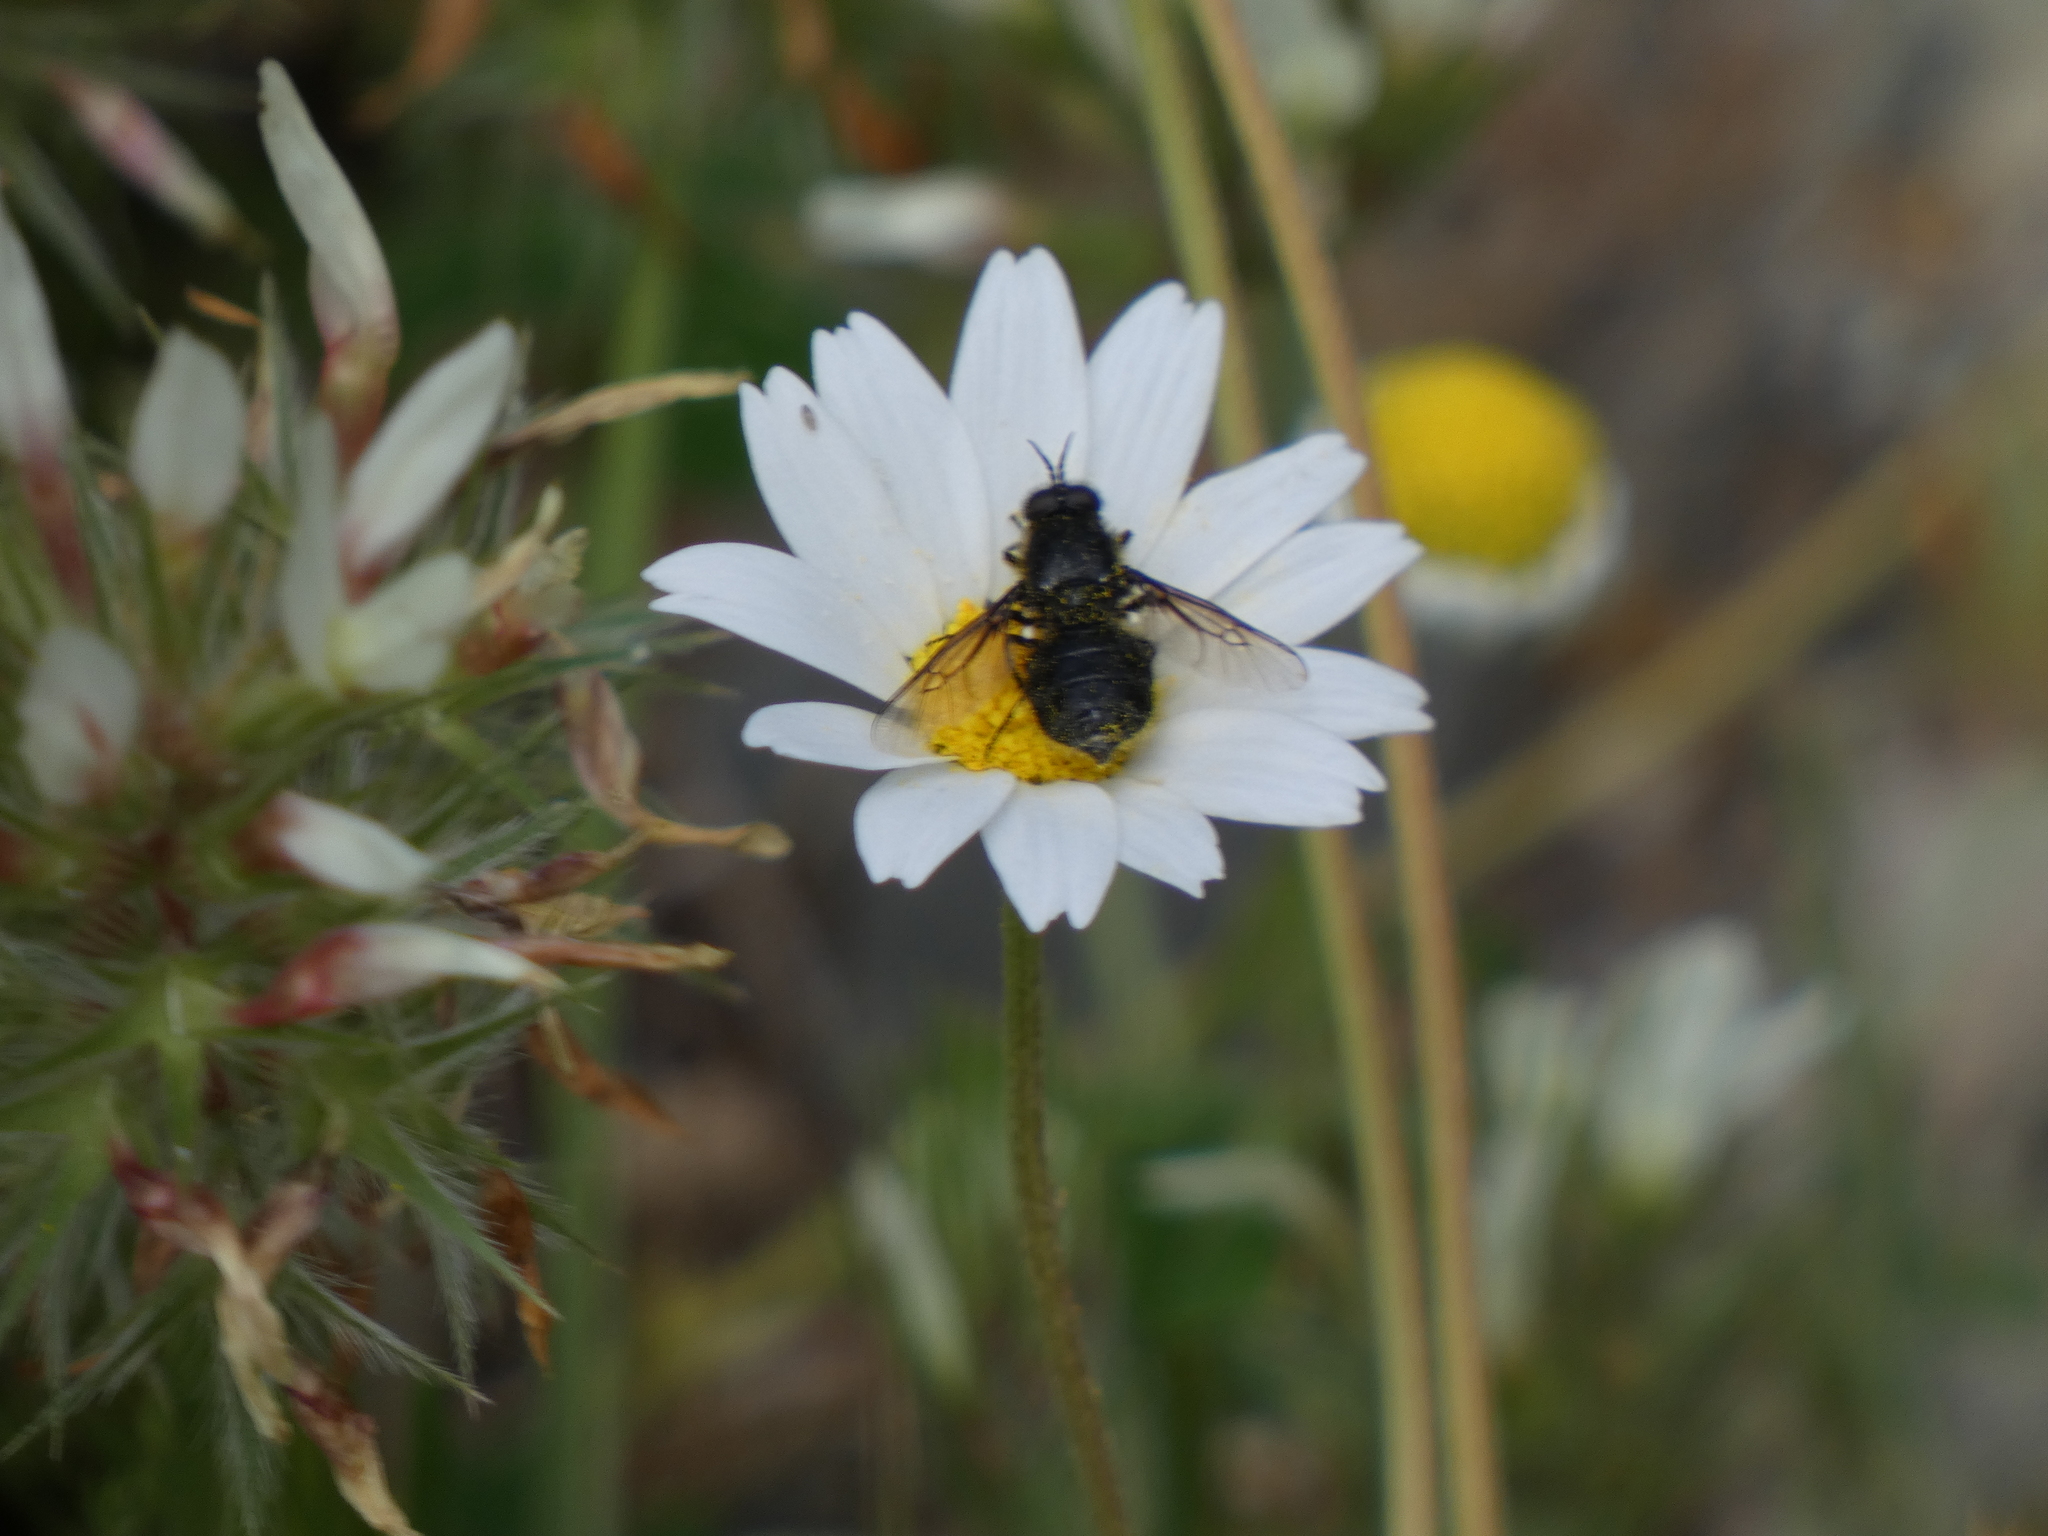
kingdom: Animalia
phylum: Arthropoda
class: Insecta
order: Diptera
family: Stratiomyidae
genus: Lasiopa
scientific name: Lasiopa
